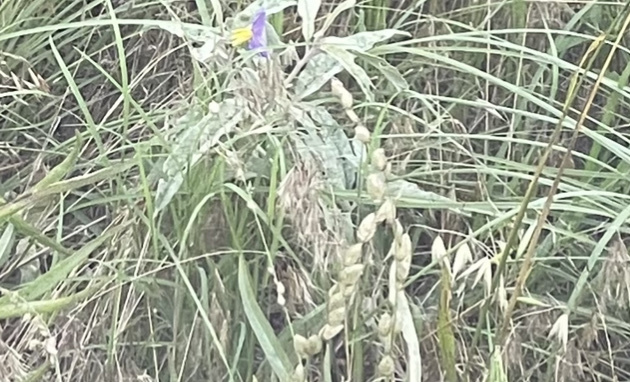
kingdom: Plantae
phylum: Tracheophyta
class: Magnoliopsida
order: Solanales
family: Solanaceae
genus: Solanum
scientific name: Solanum elaeagnifolium
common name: Silverleaf nightshade
